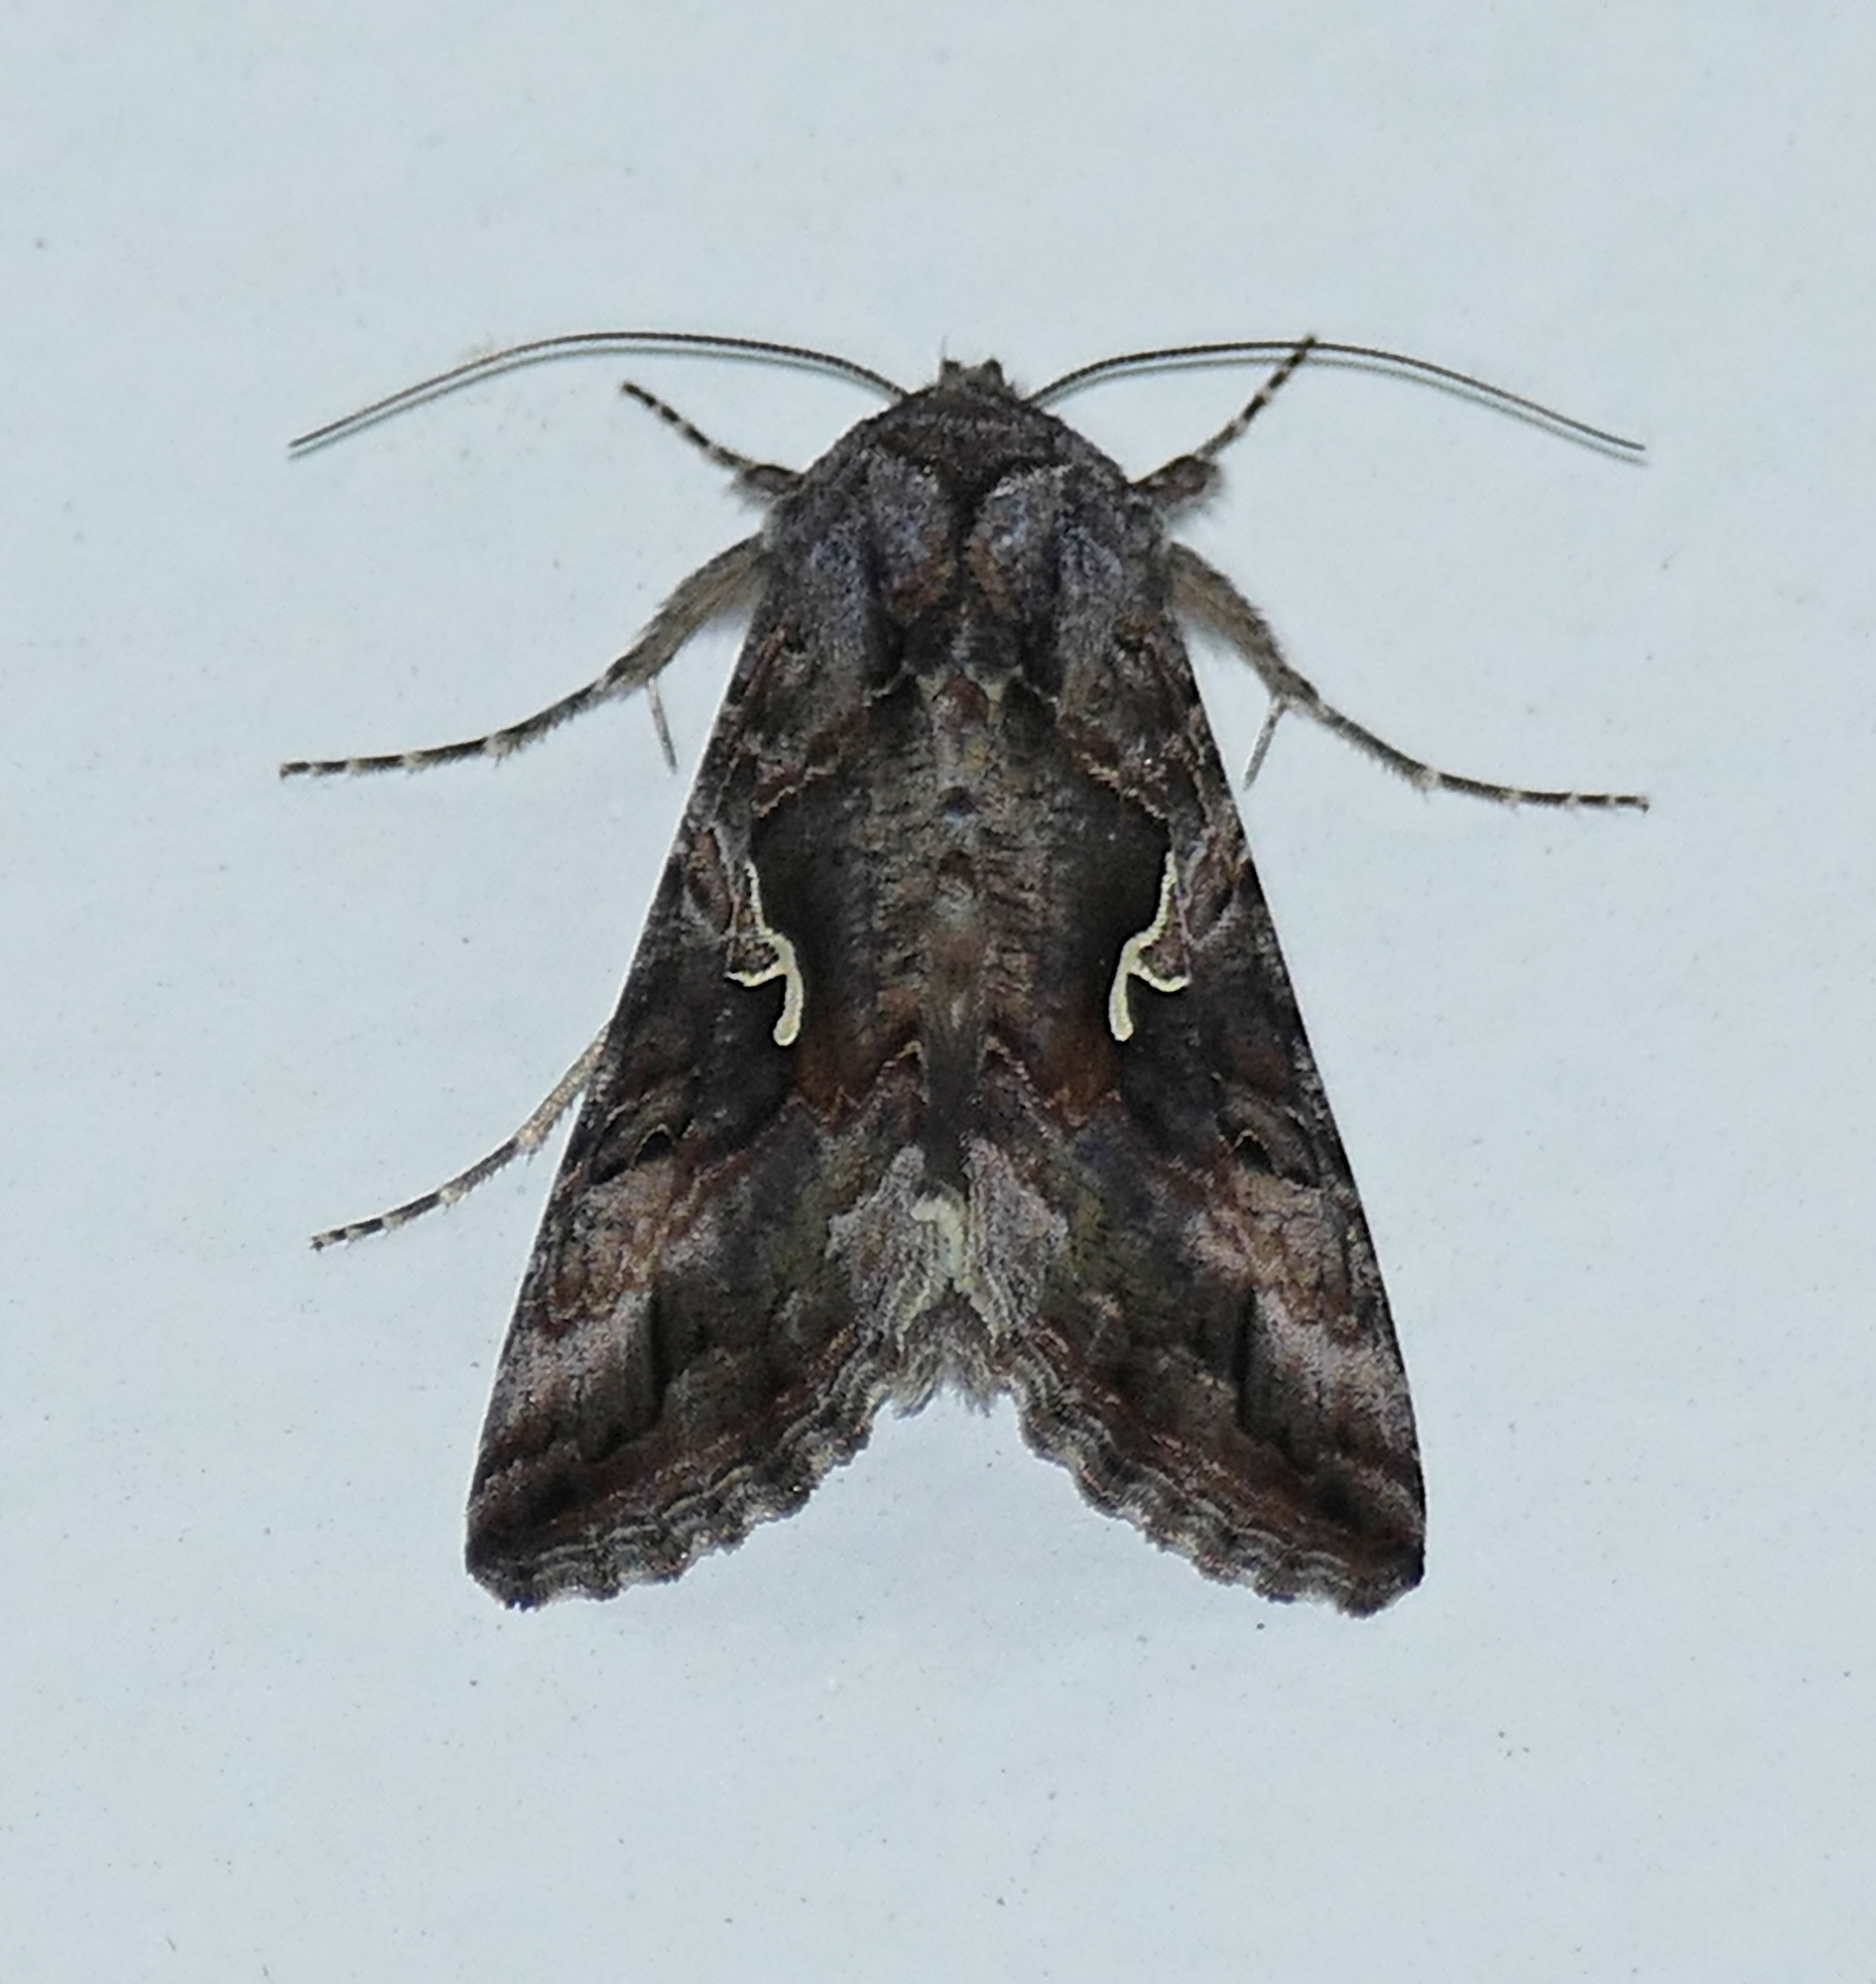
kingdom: Animalia
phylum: Arthropoda
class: Insecta
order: Lepidoptera
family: Noctuidae
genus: Autographa
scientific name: Autographa californica
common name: Alfalfa looper
